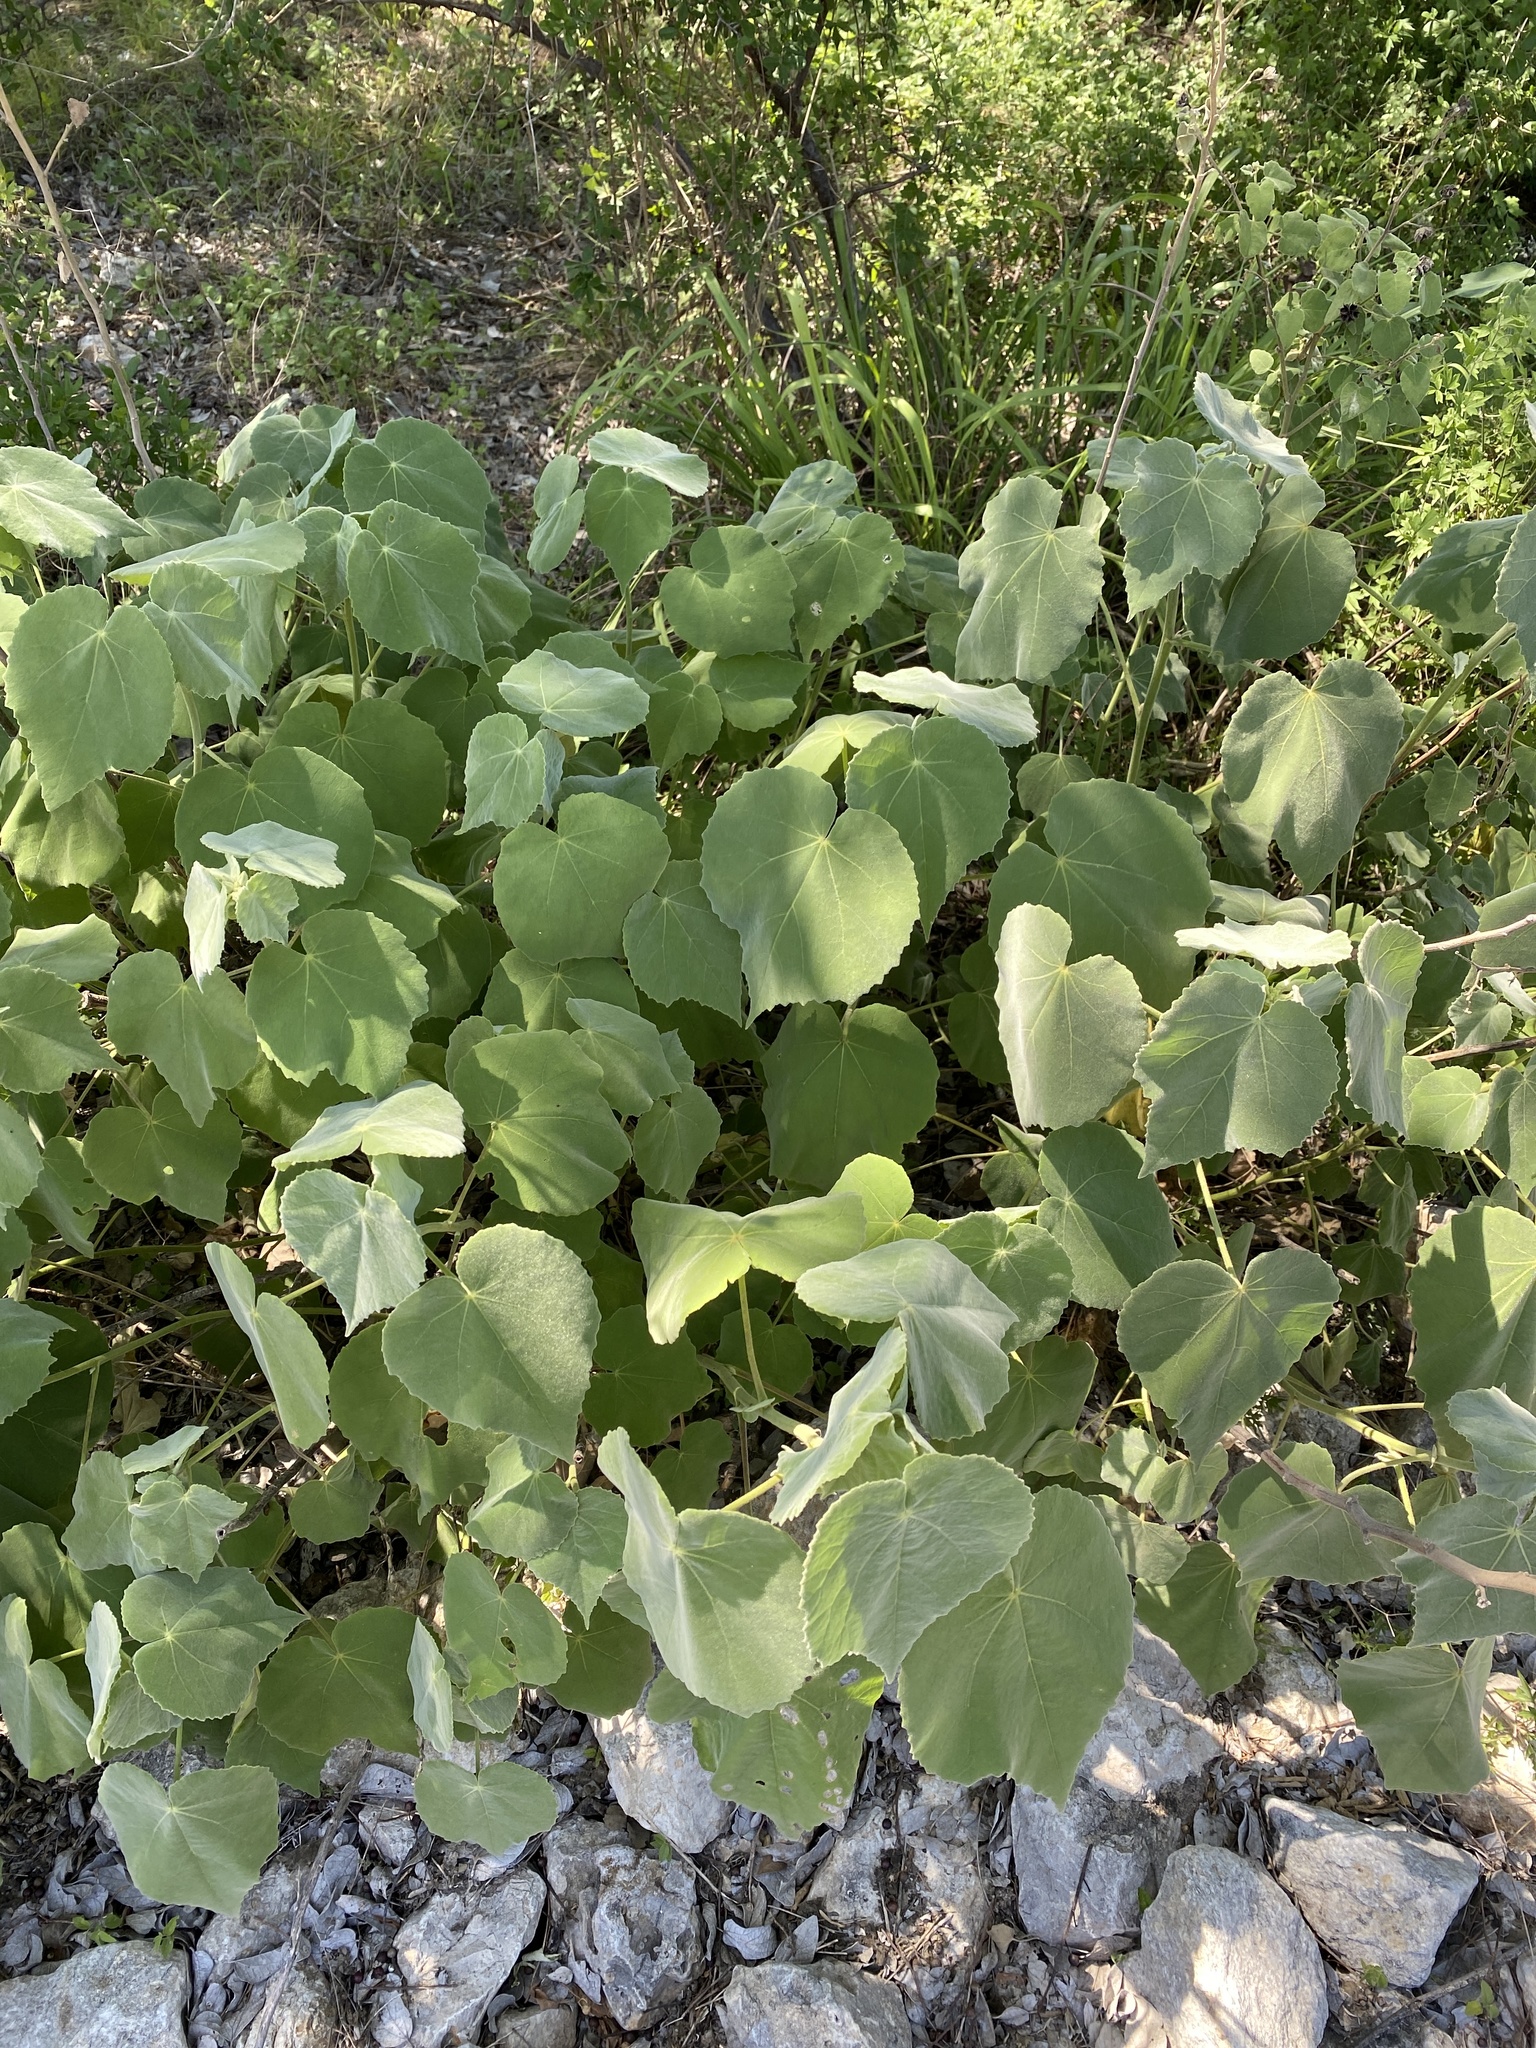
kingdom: Plantae
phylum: Tracheophyta
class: Magnoliopsida
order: Malvales
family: Malvaceae
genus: Allowissadula
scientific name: Allowissadula holosericea
